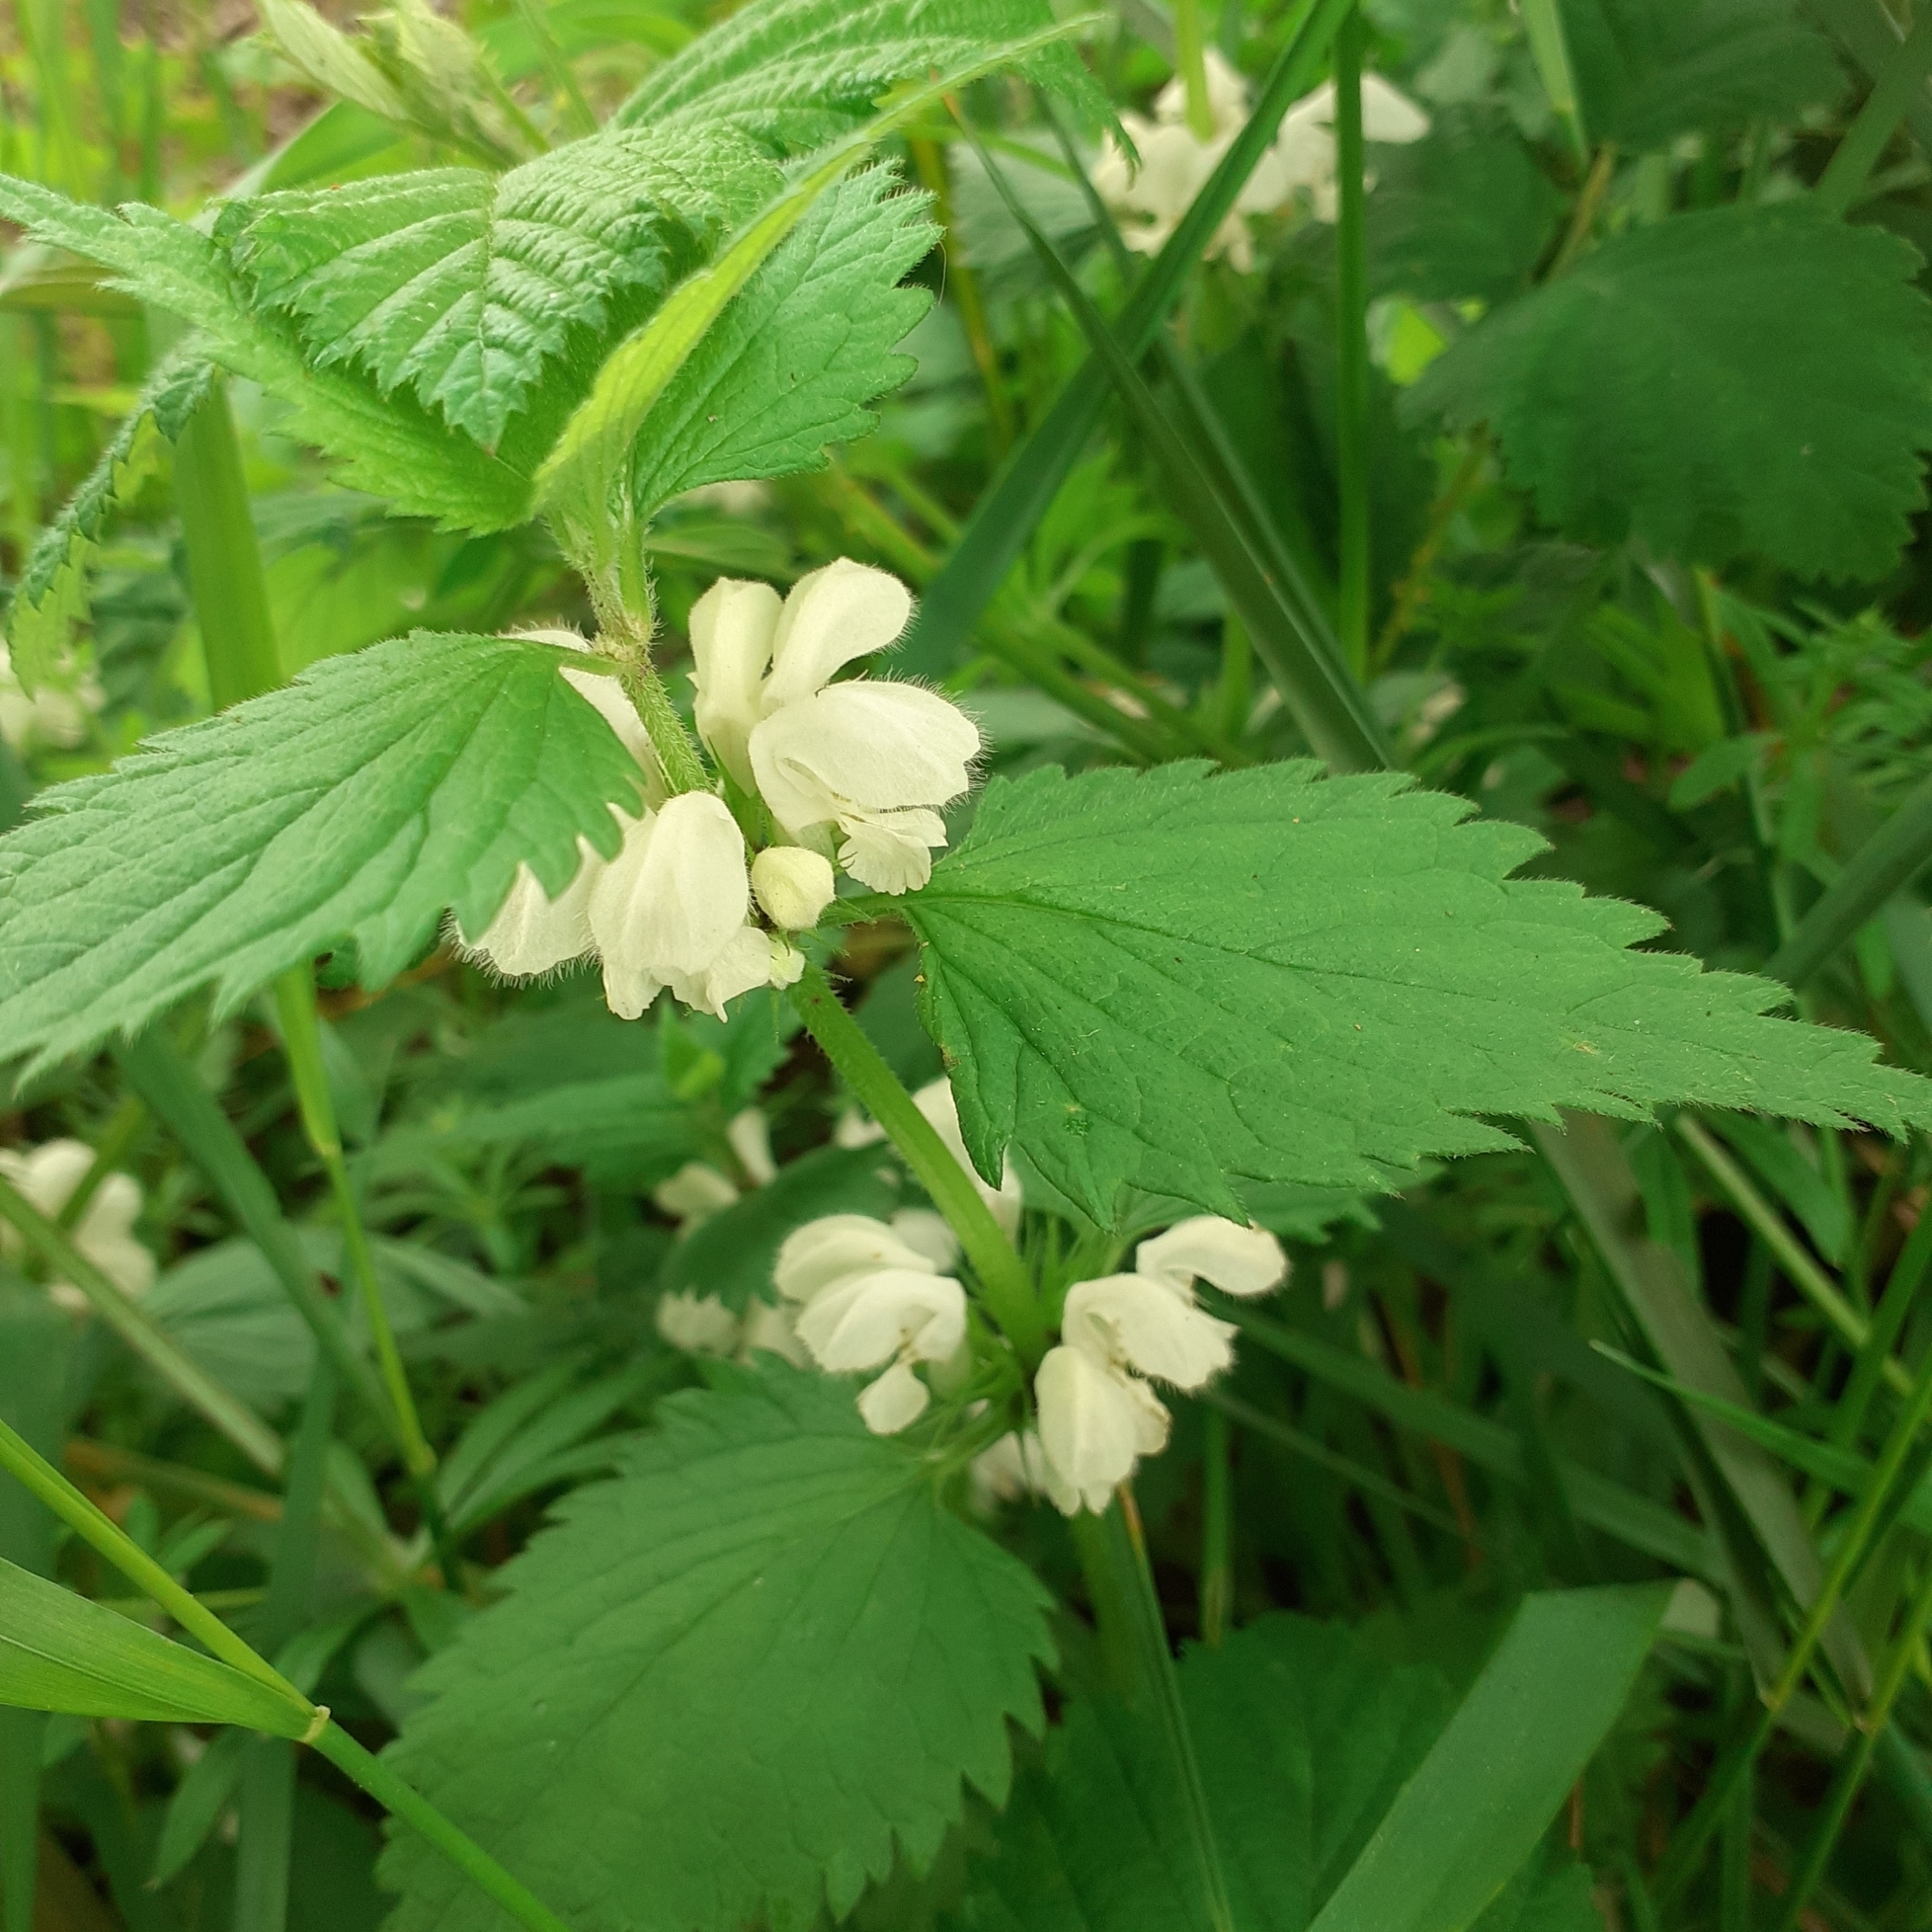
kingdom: Plantae
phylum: Tracheophyta
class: Magnoliopsida
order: Lamiales
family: Lamiaceae
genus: Lamium
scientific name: Lamium album
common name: White dead-nettle
